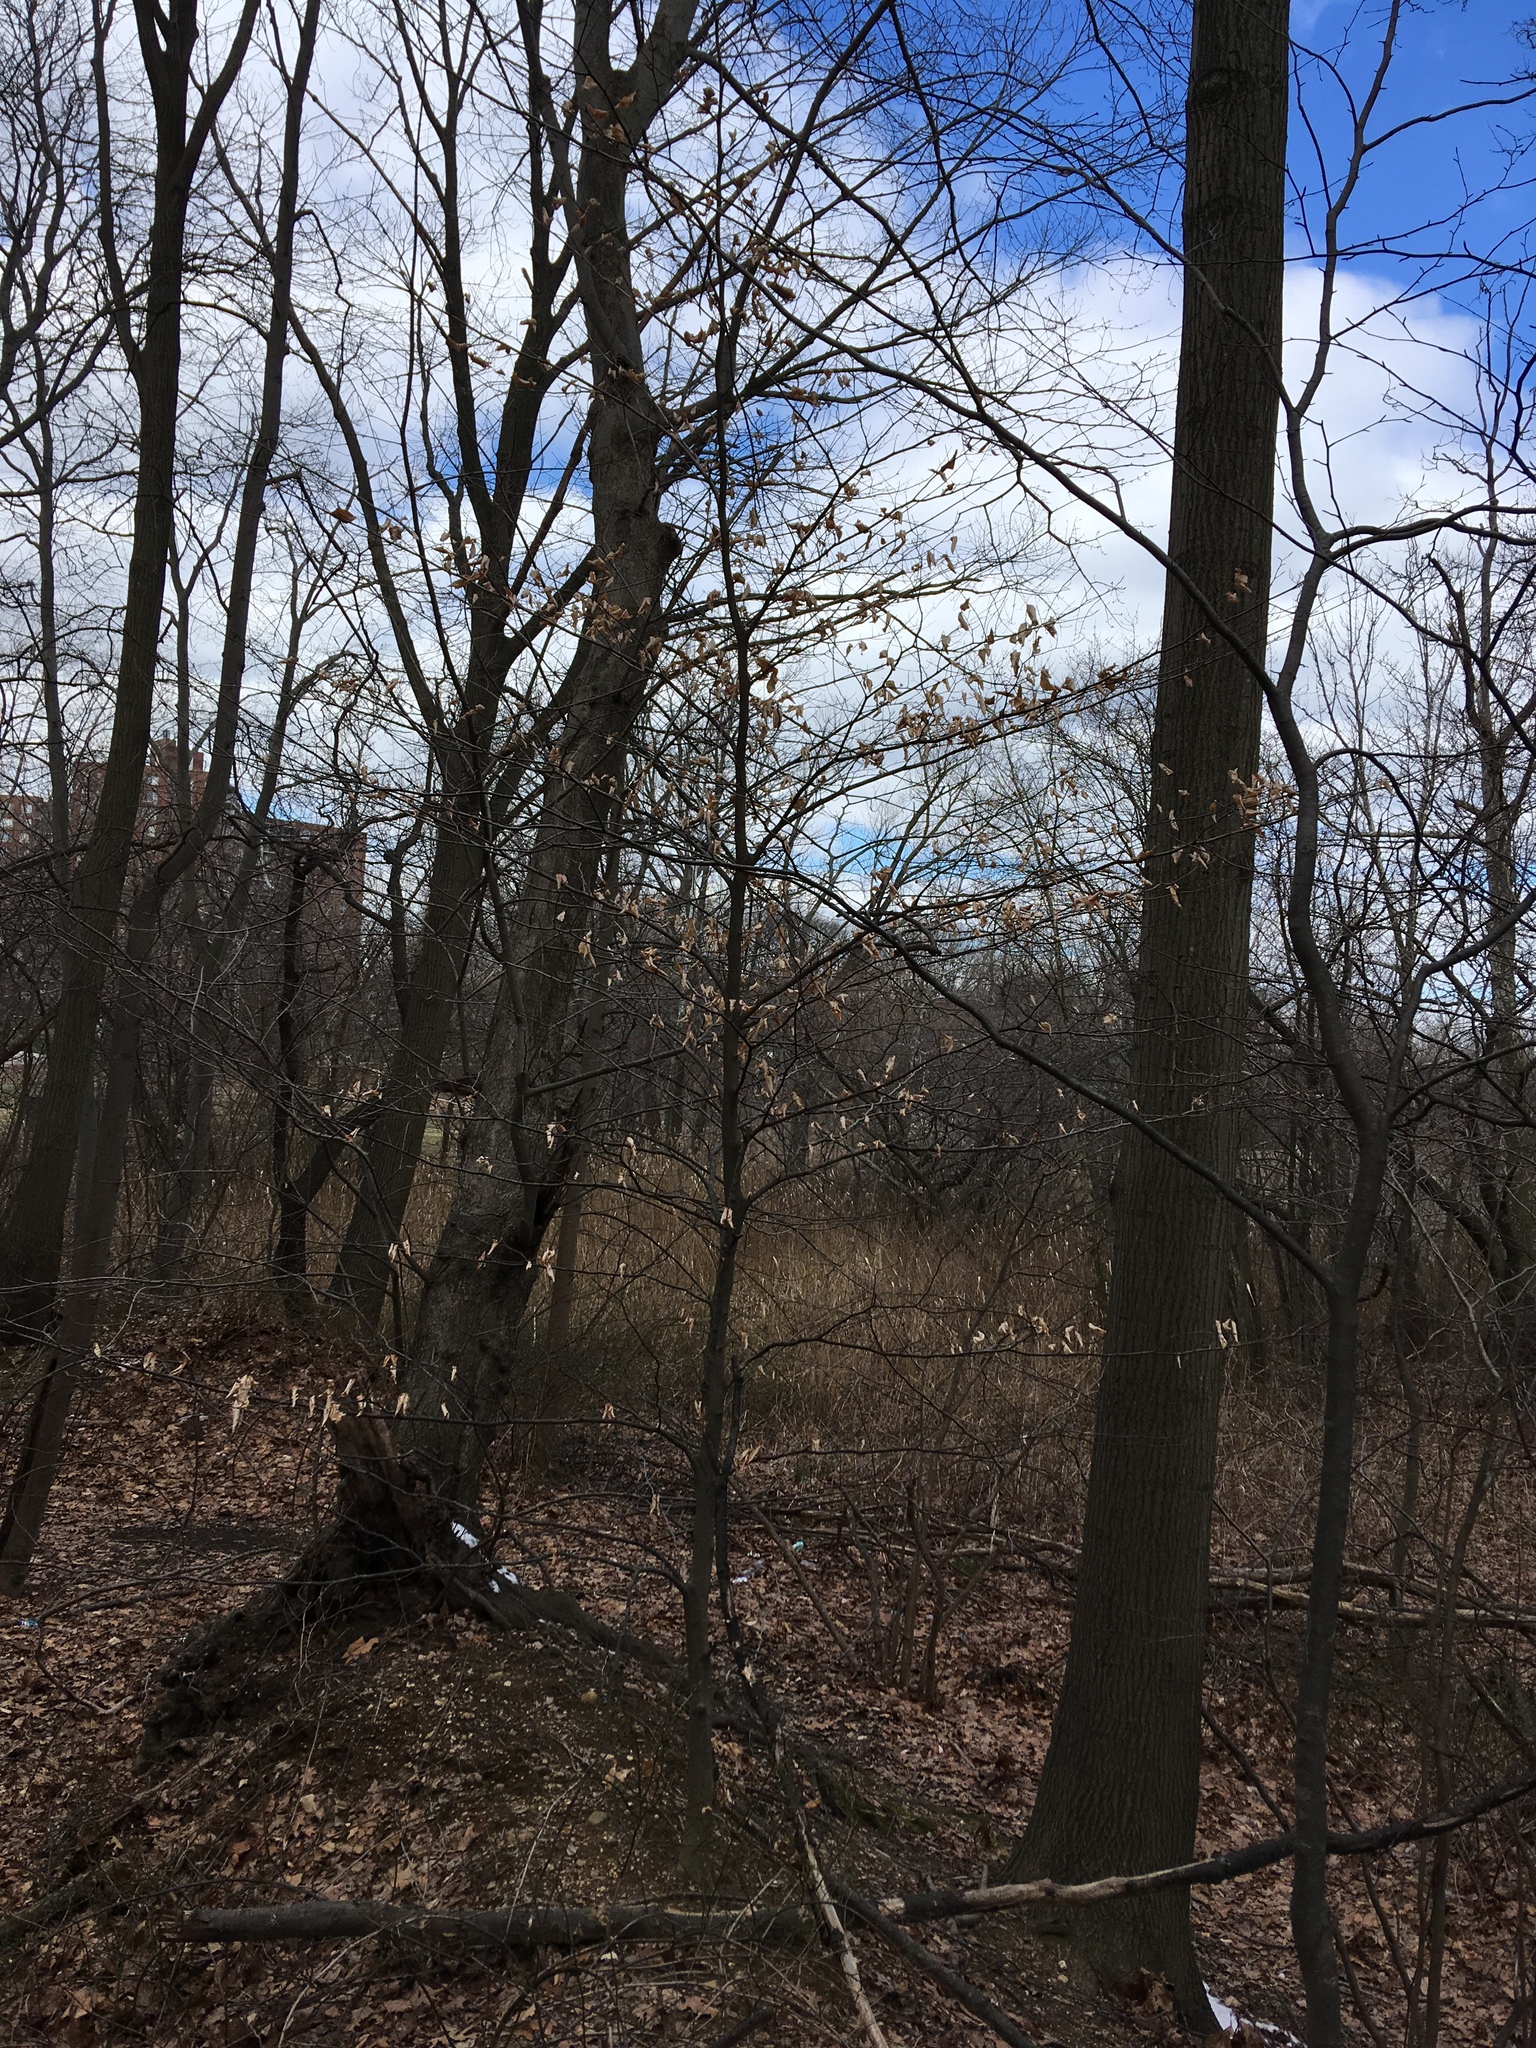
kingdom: Plantae
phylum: Tracheophyta
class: Magnoliopsida
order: Fagales
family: Fagaceae
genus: Fagus
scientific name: Fagus grandifolia
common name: American beech
